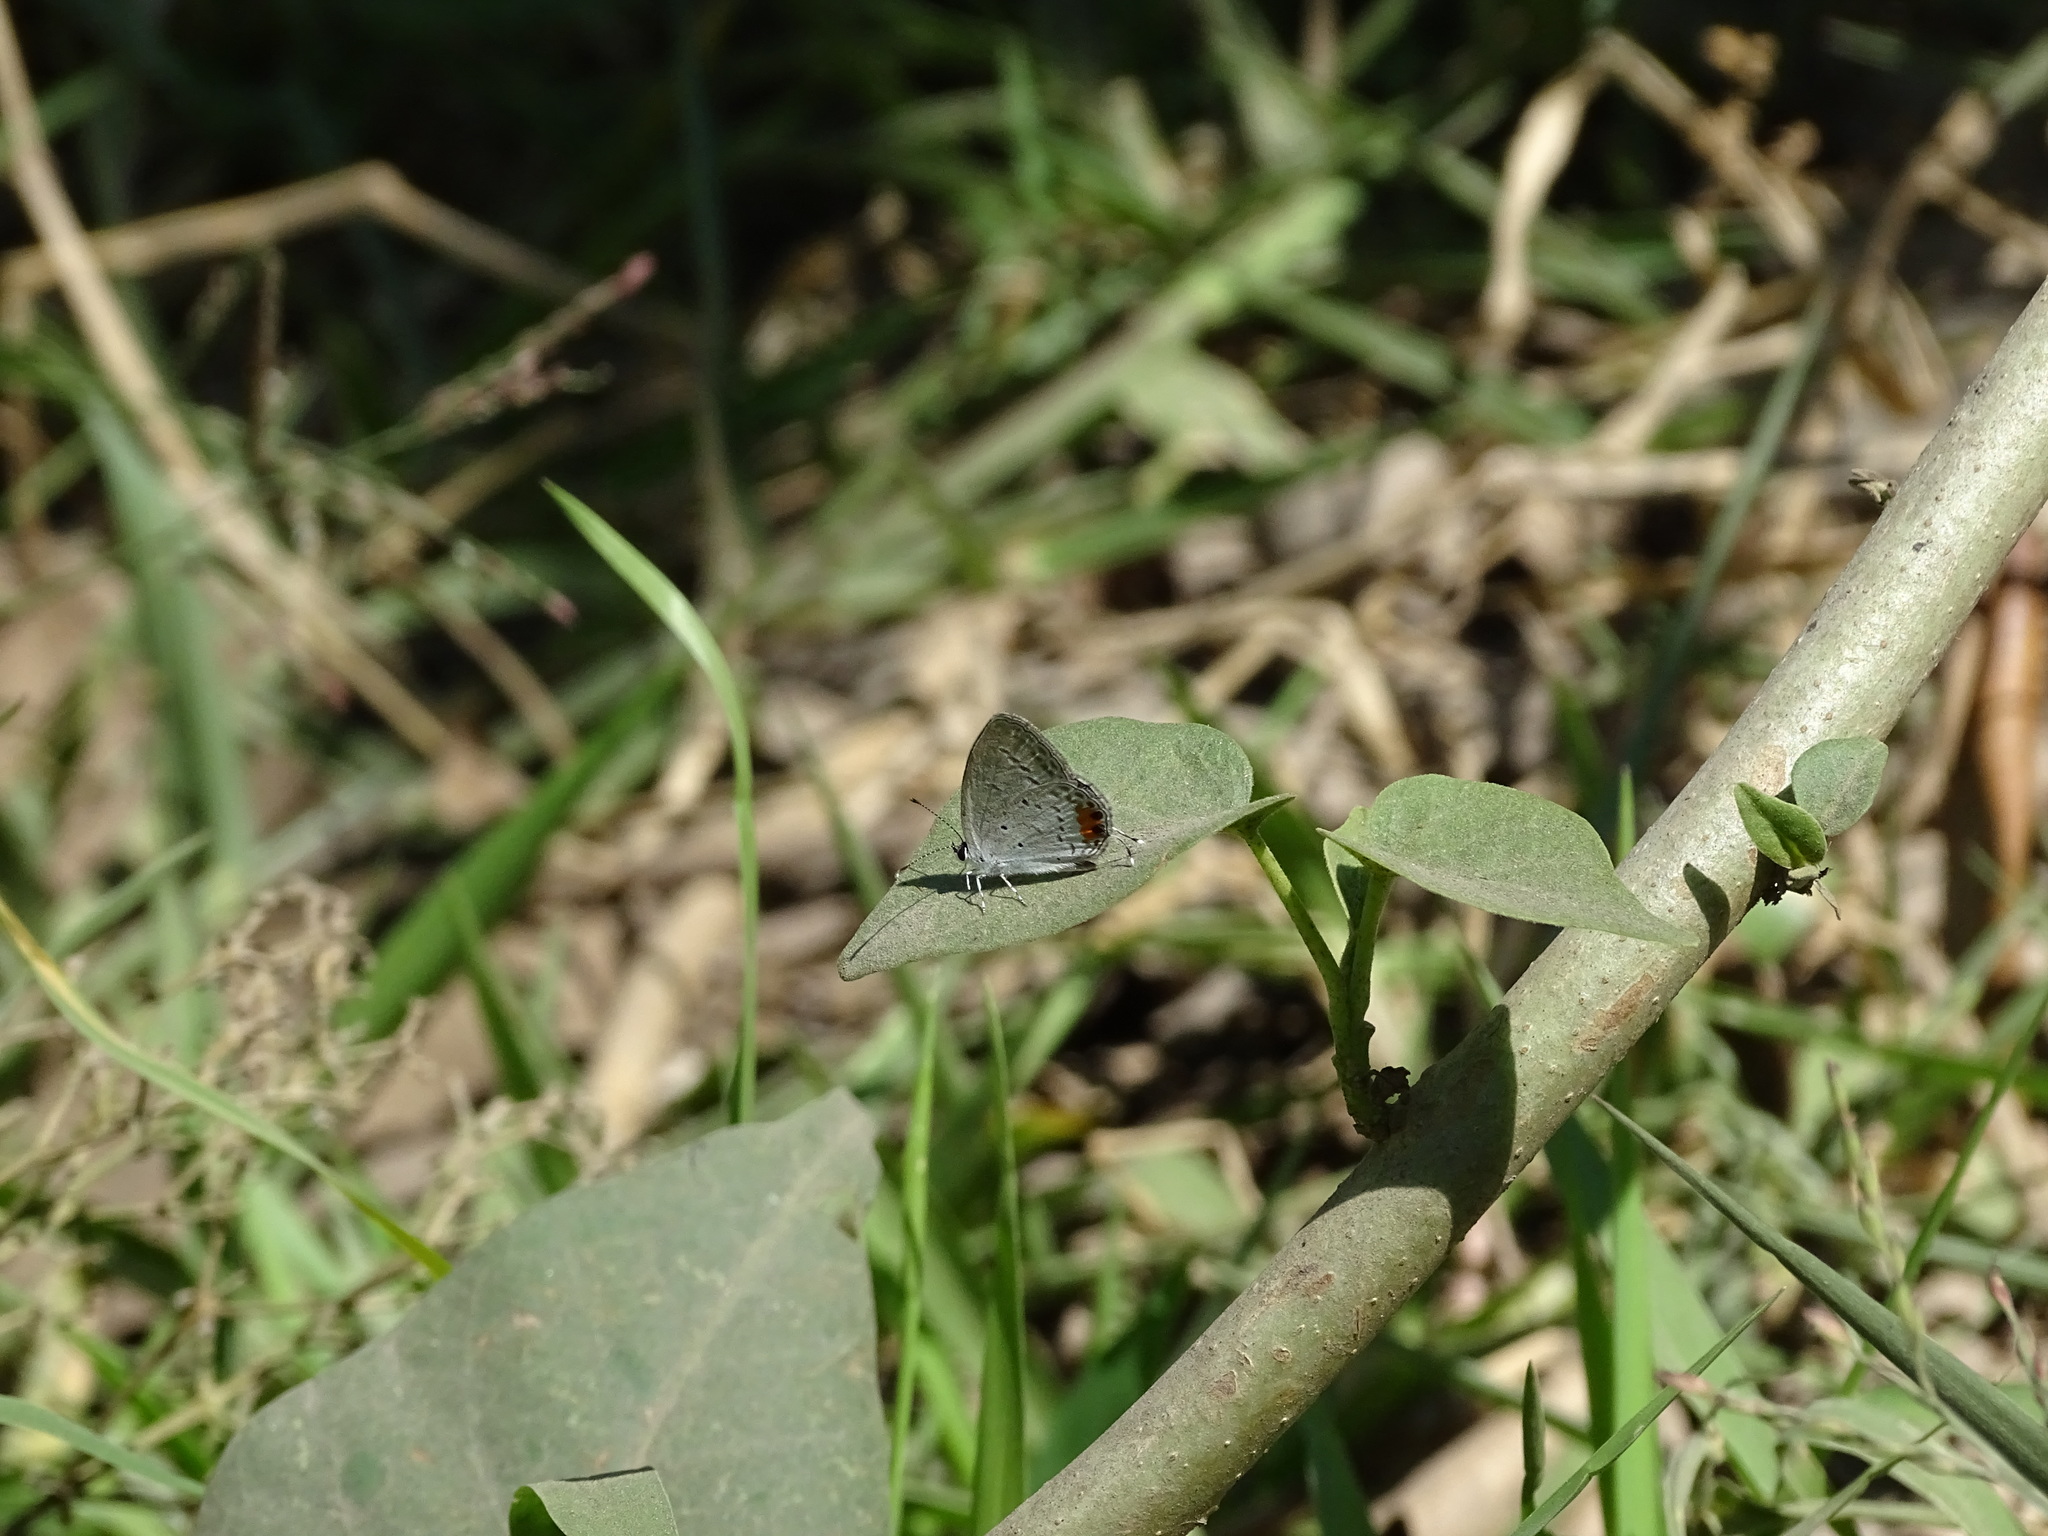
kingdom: Animalia
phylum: Arthropoda
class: Insecta
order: Lepidoptera
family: Lycaenidae
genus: Everes
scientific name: Everes lacturnus
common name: Orange-tipped pea-blue
